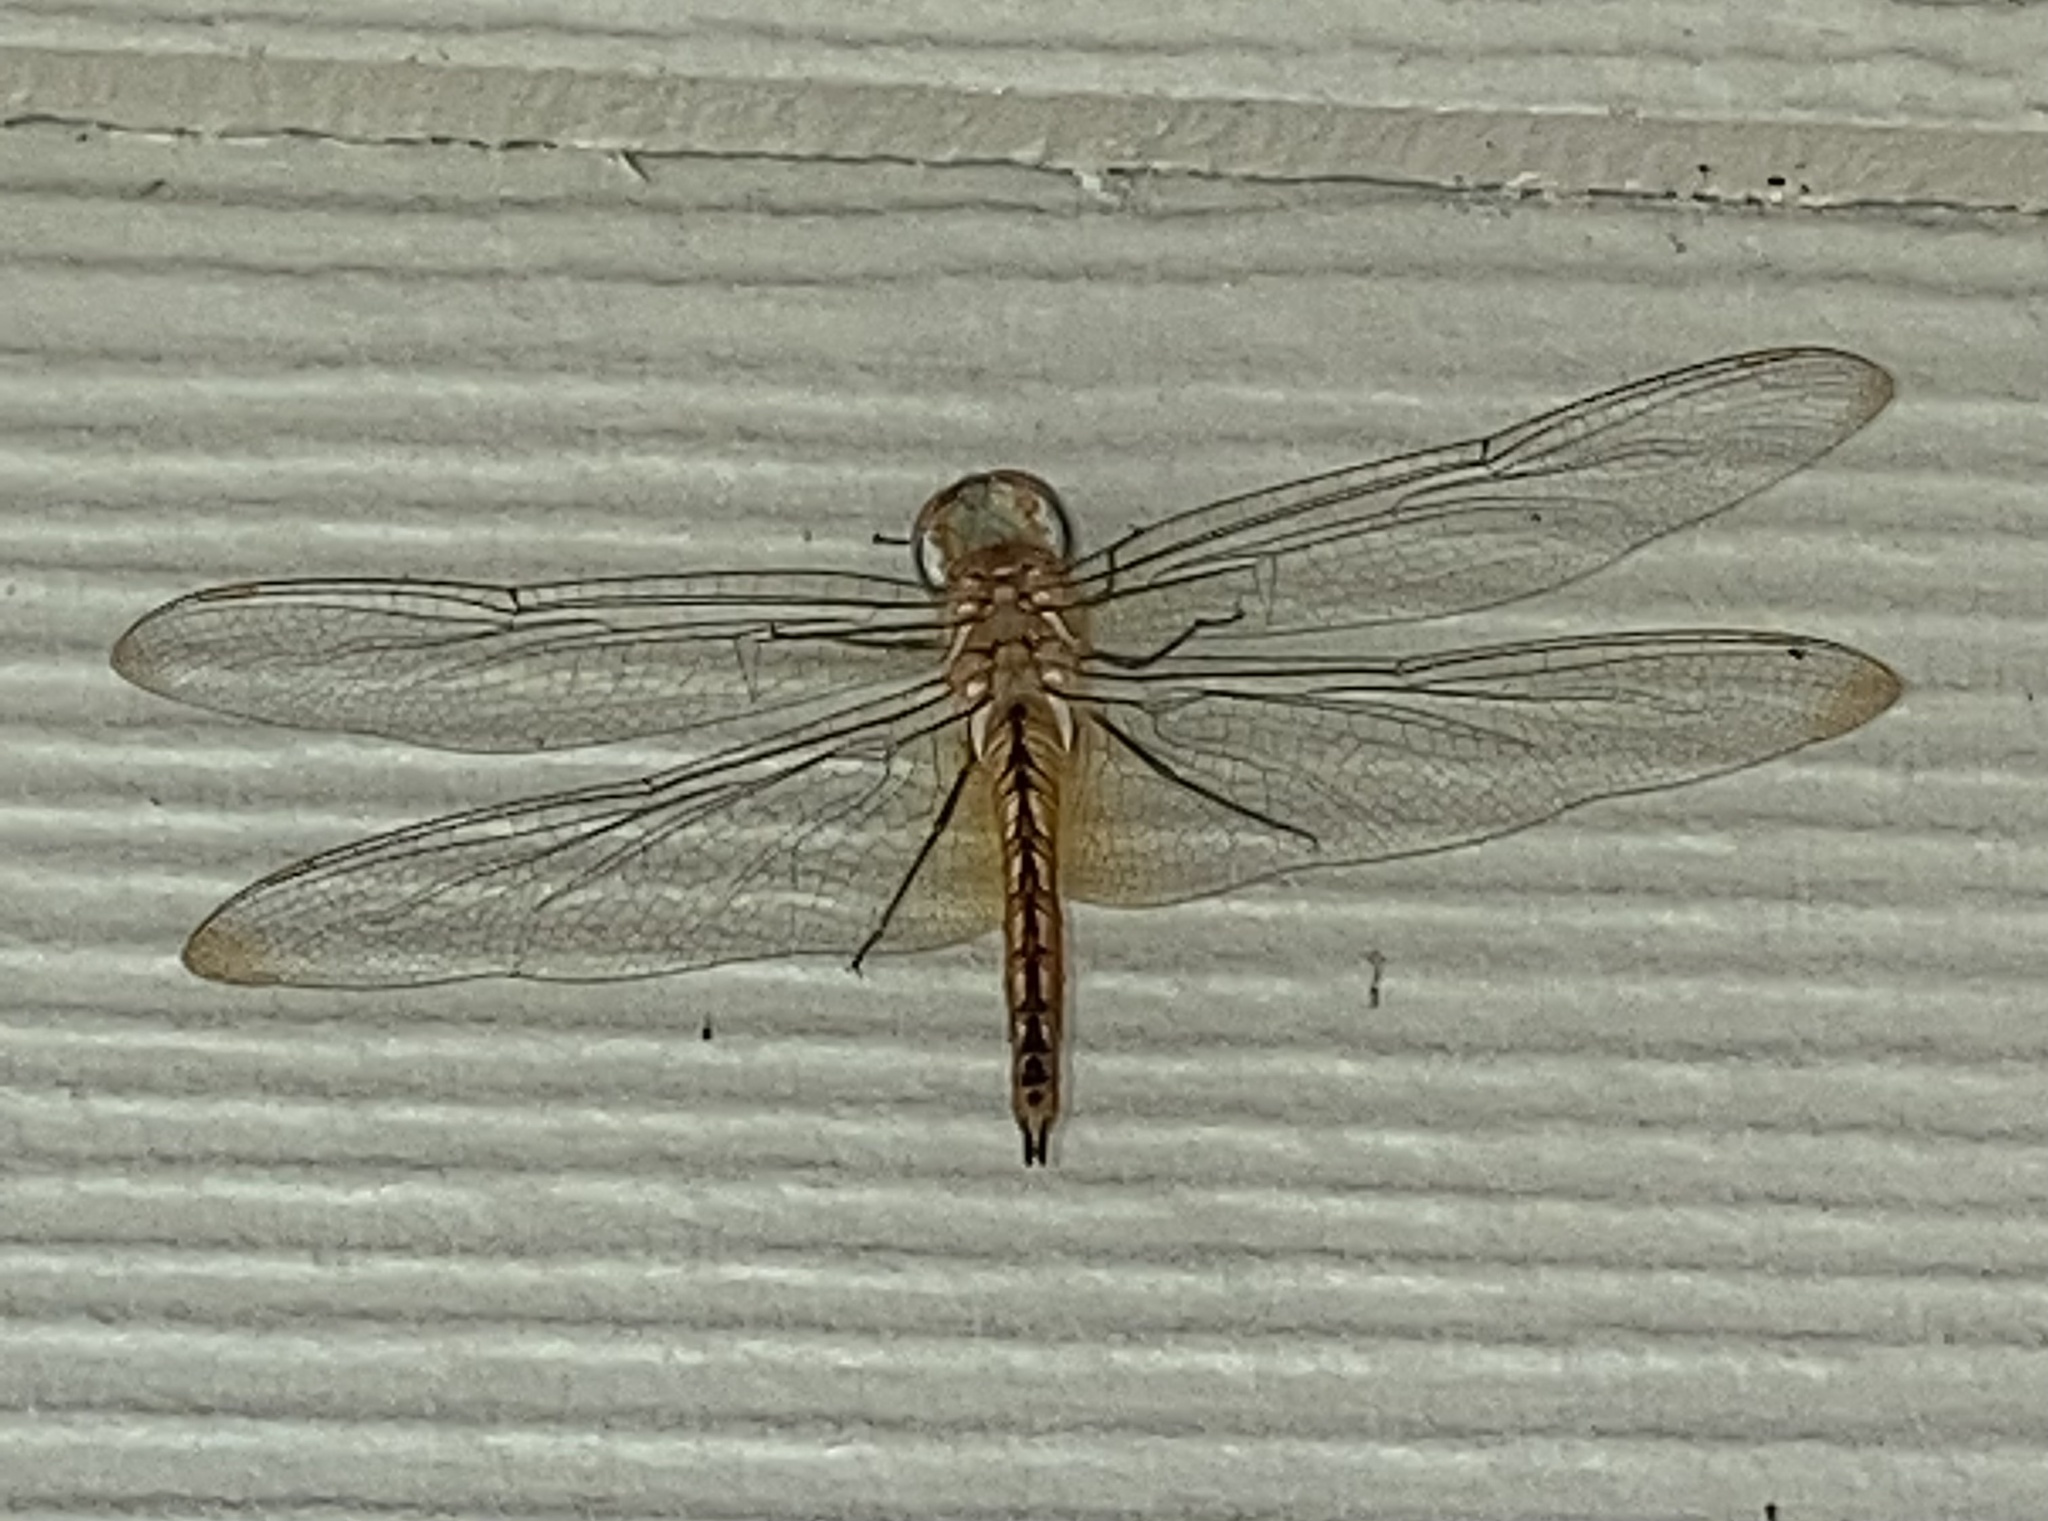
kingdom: Animalia
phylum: Arthropoda
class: Insecta
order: Odonata
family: Libellulidae
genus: Pantala
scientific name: Pantala flavescens
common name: Wandering glider
